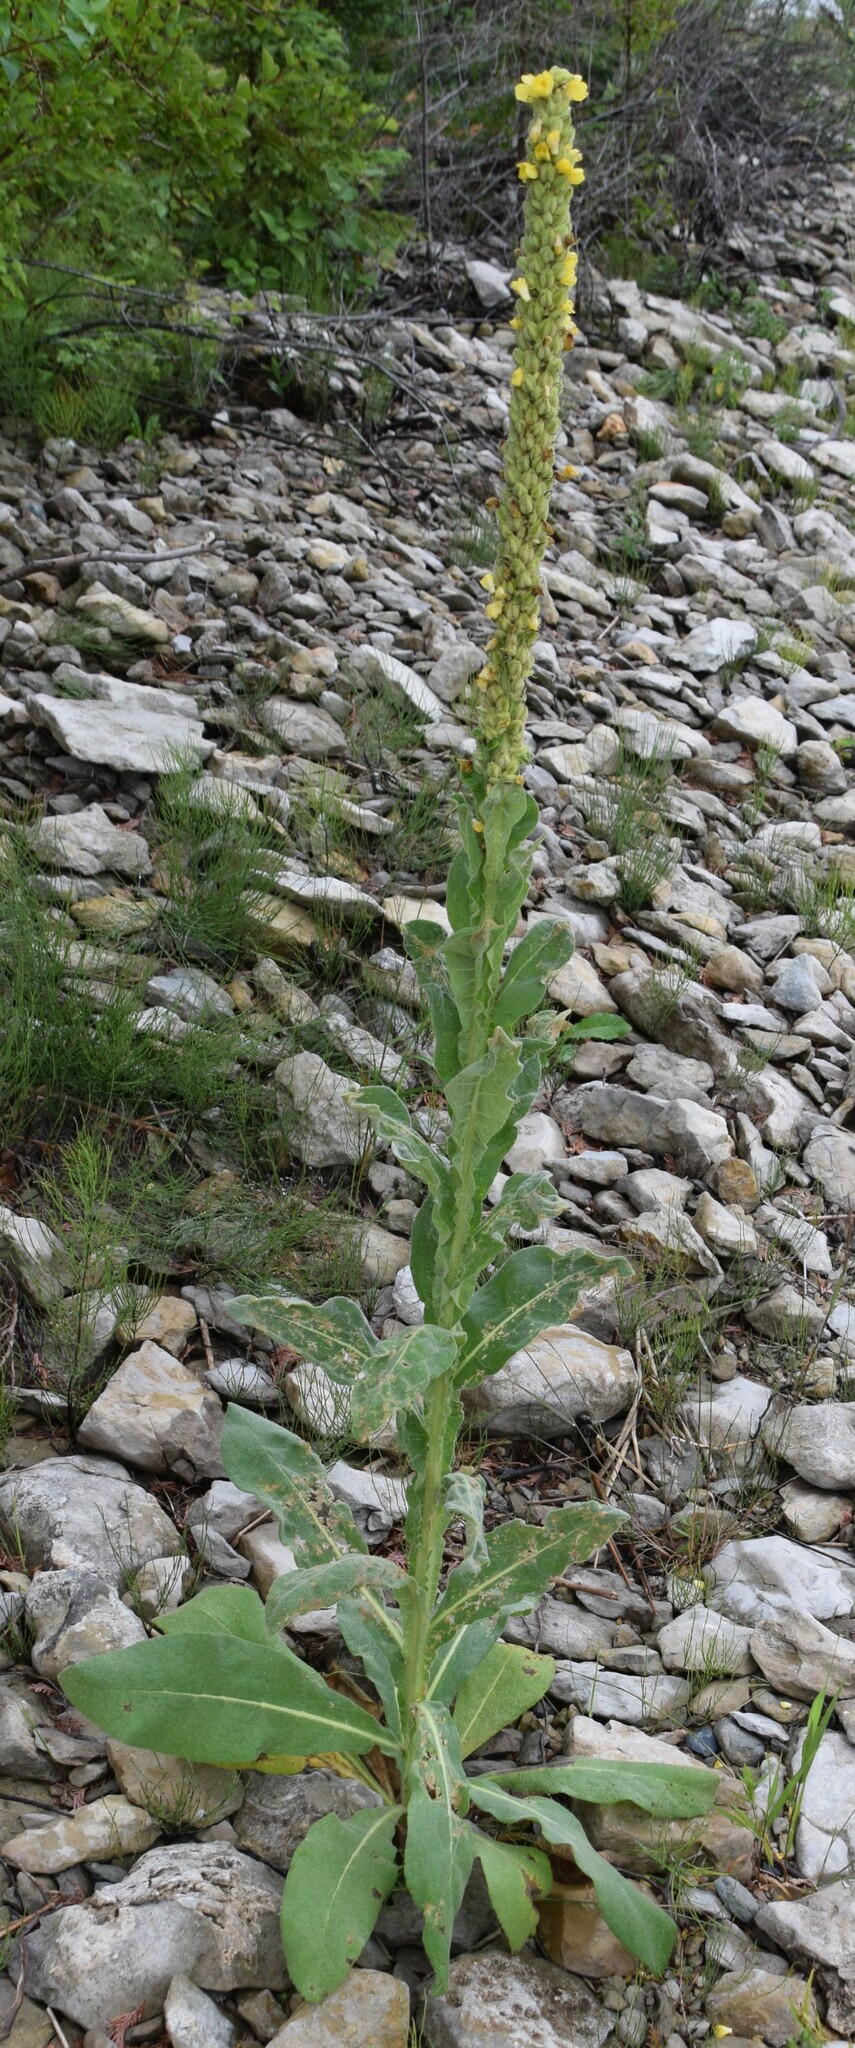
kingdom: Plantae
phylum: Tracheophyta
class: Magnoliopsida
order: Lamiales
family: Scrophulariaceae
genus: Verbascum
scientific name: Verbascum thapsus
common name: Common mullein
